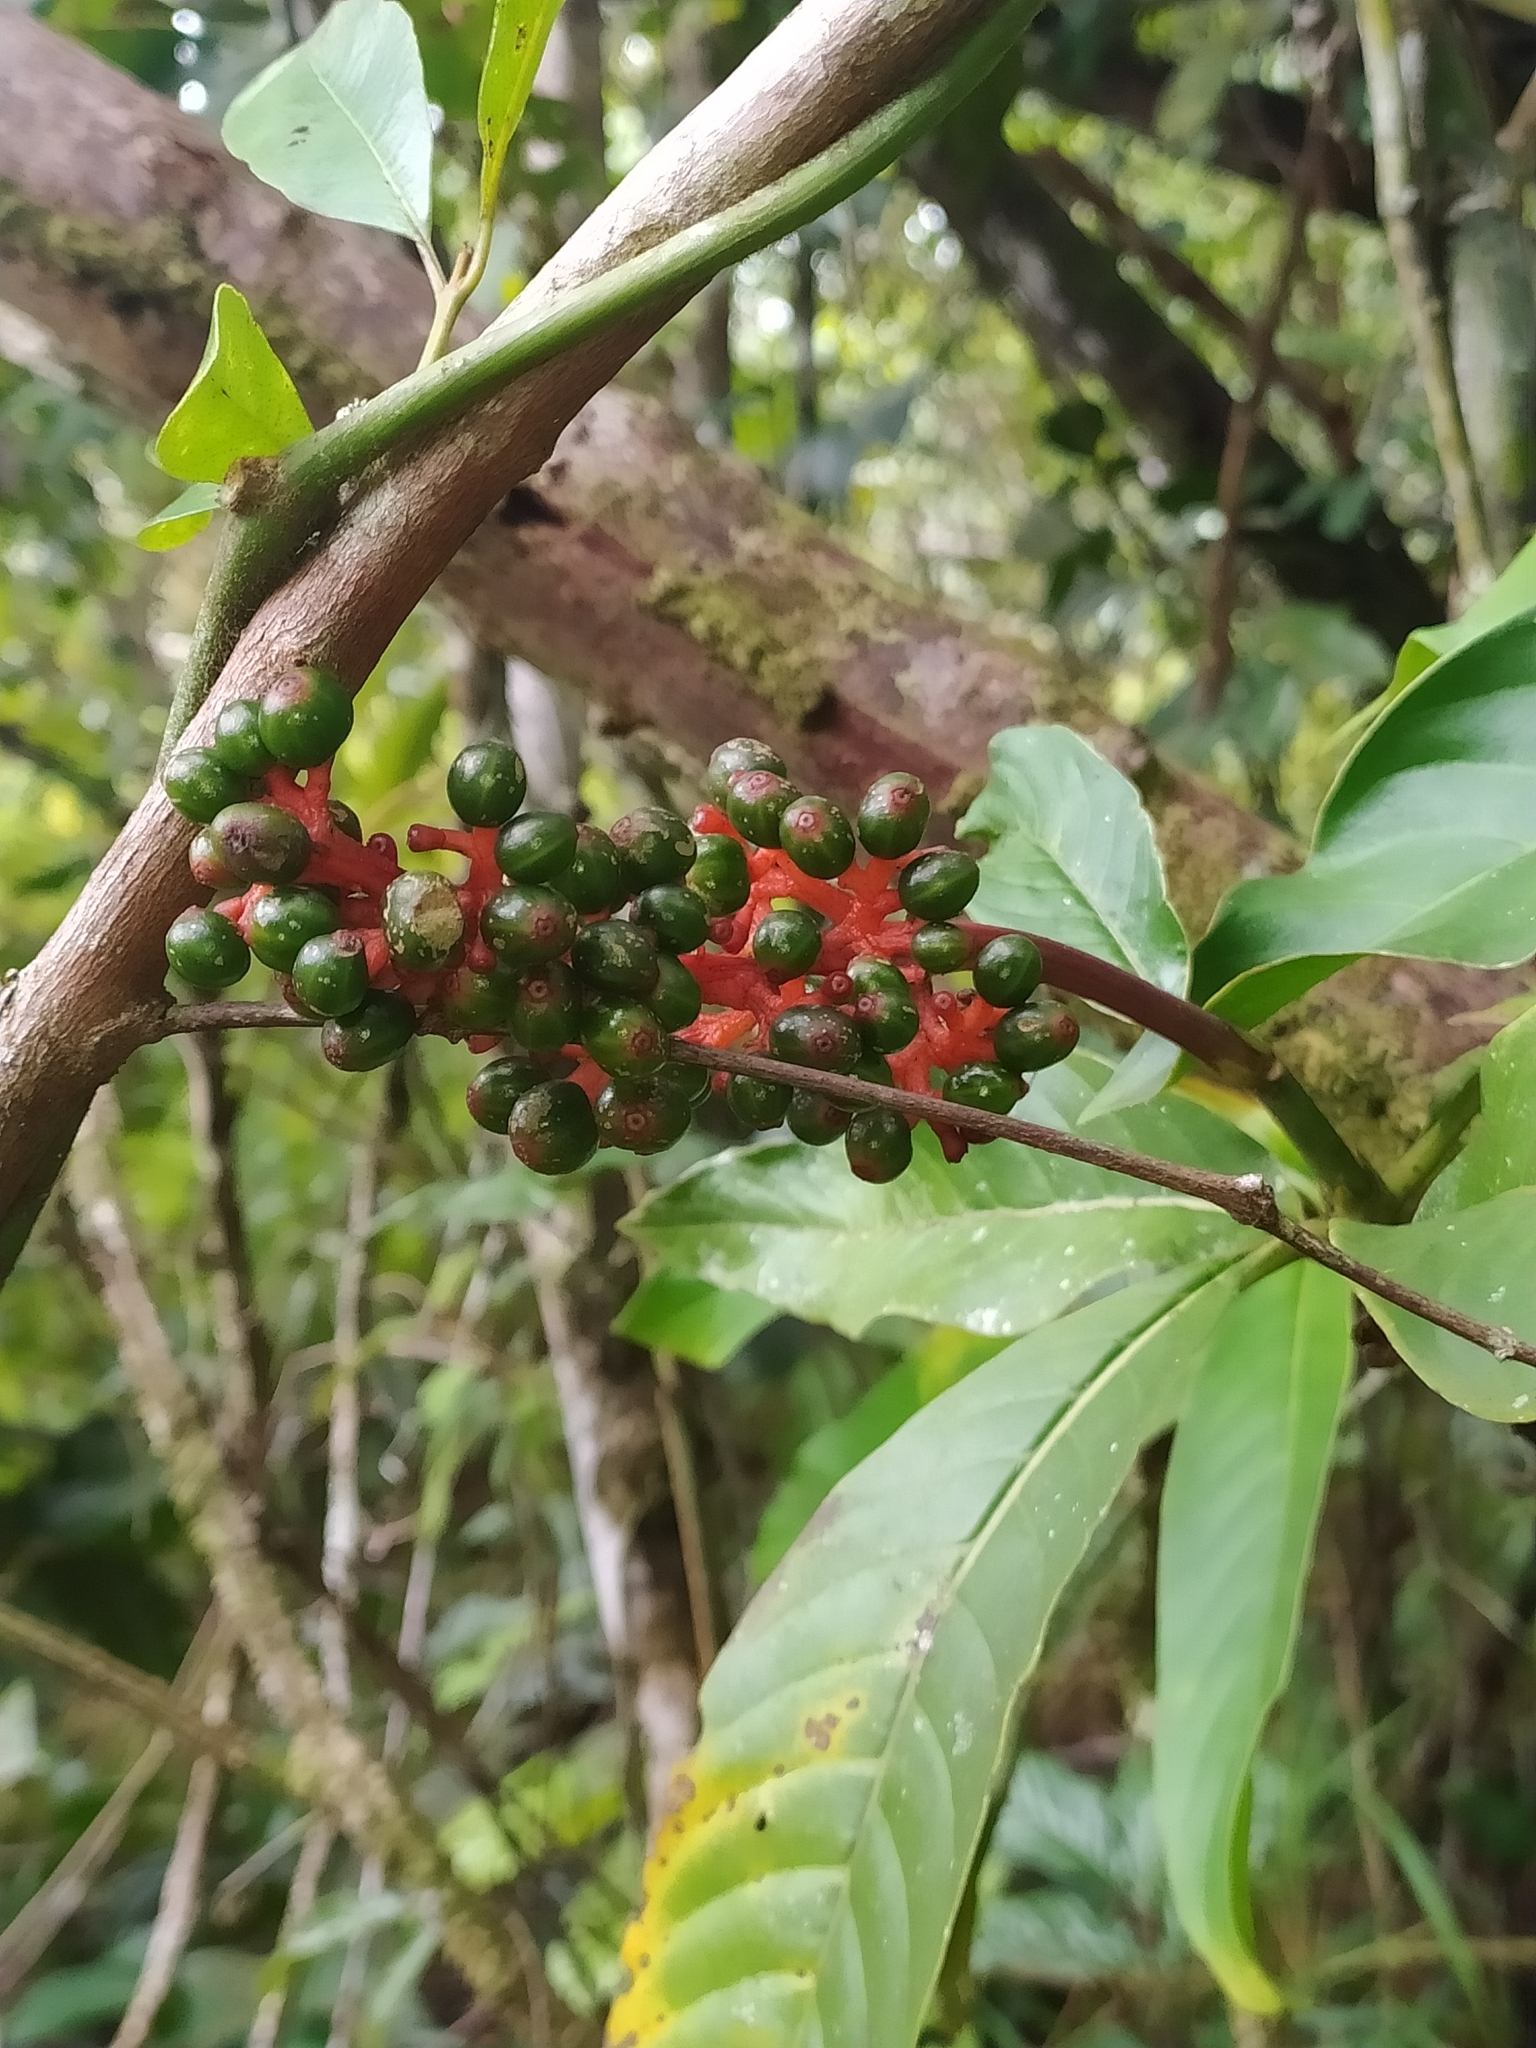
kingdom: Plantae
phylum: Tracheophyta
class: Magnoliopsida
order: Gentianales
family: Rubiaceae
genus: Palicourea
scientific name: Palicourea calophylla
